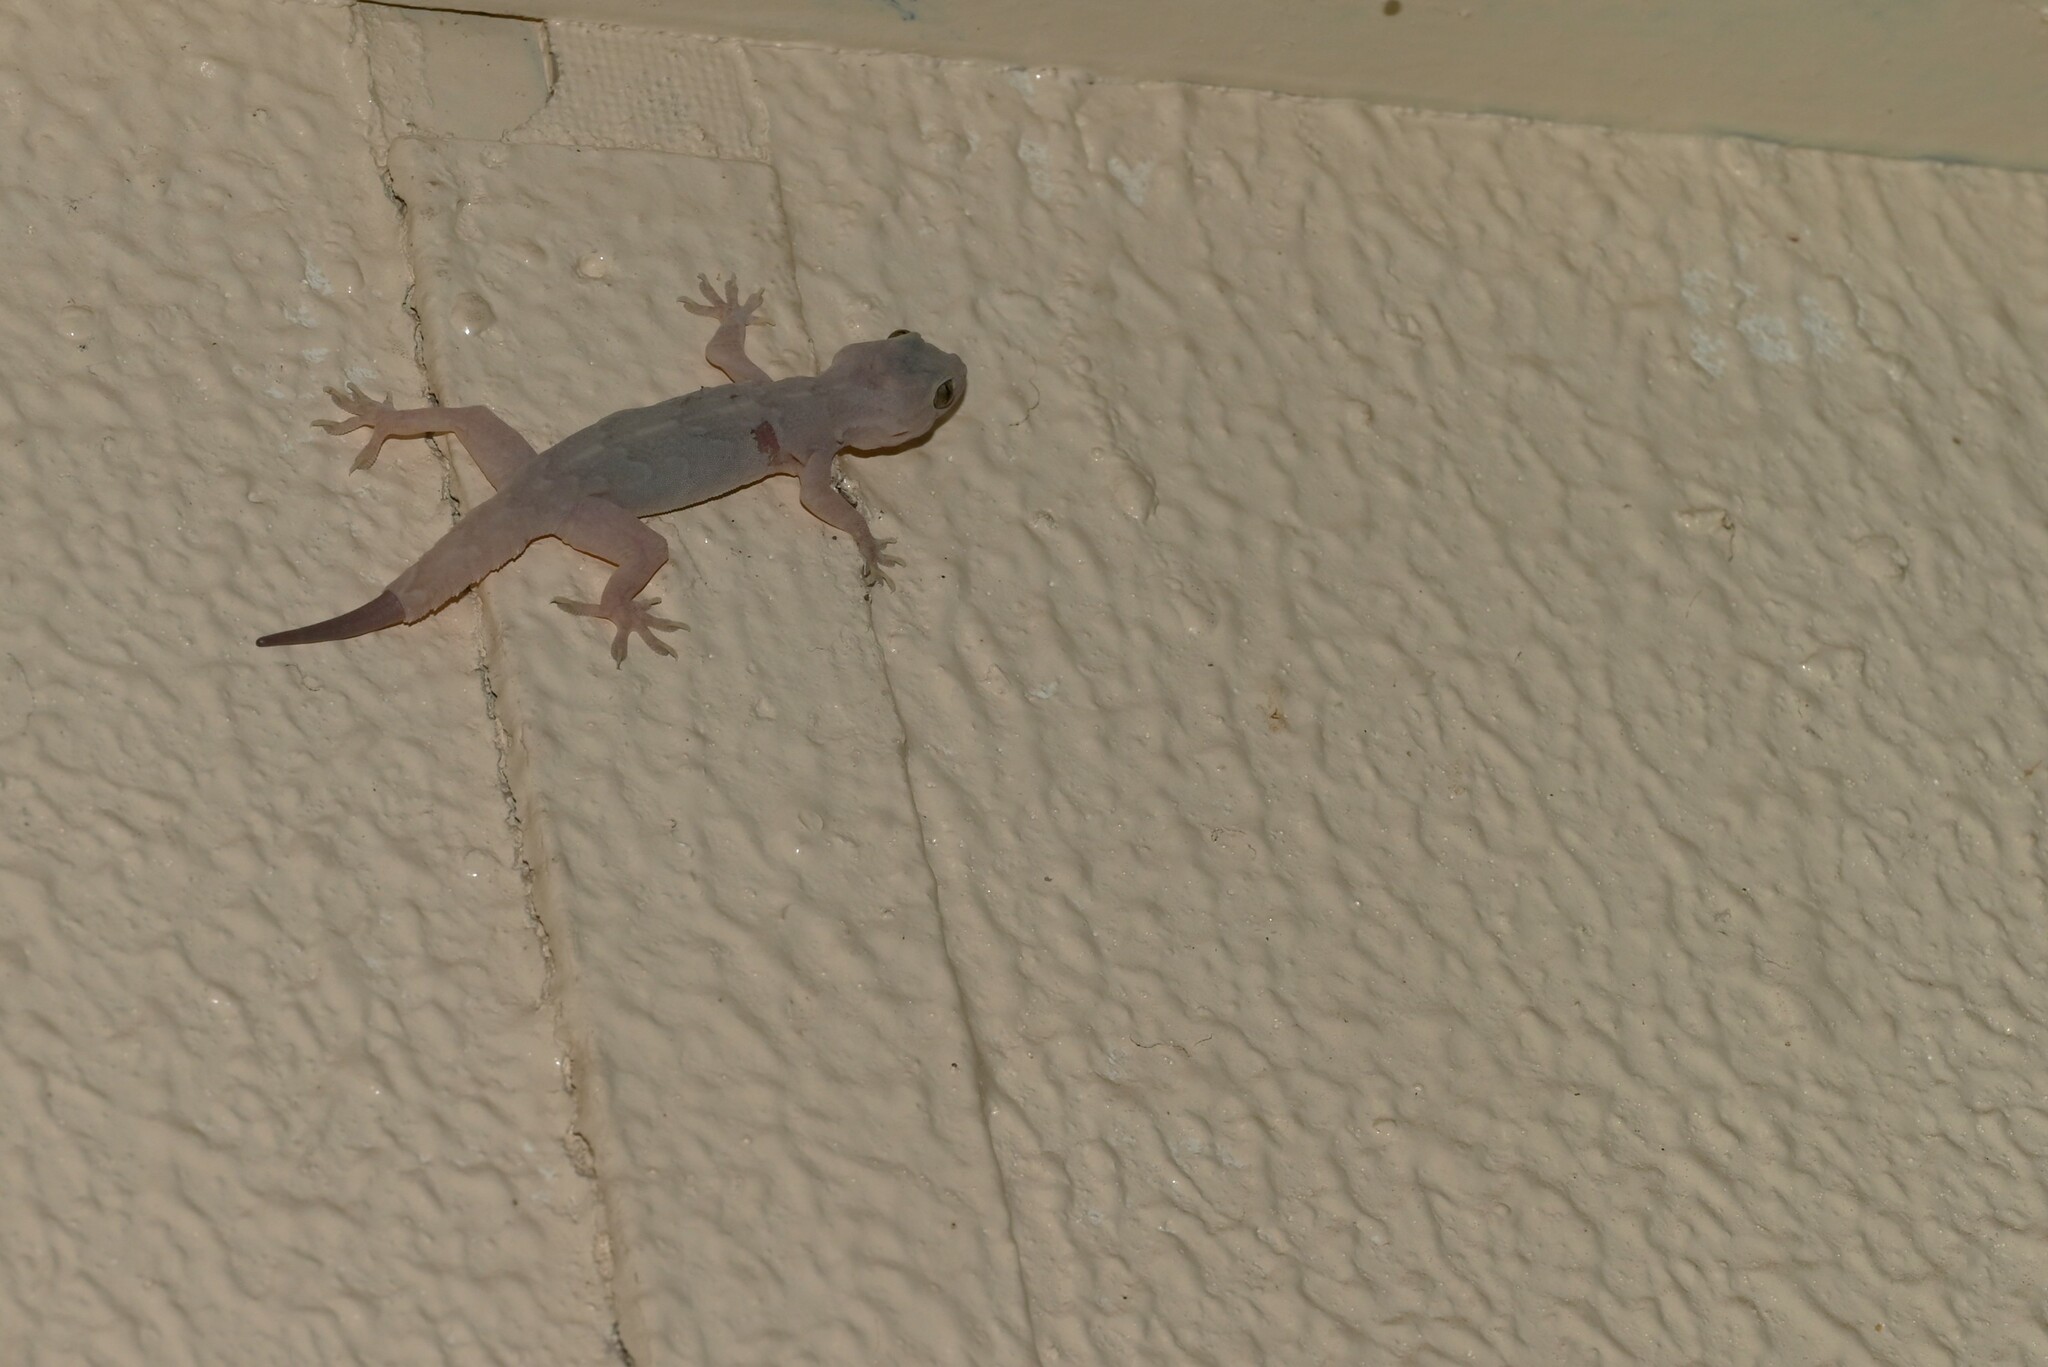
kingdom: Animalia
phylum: Chordata
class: Squamata
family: Gekkonidae
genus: Hemidactylus
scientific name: Hemidactylus flaviviridis
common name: Northern house gecko
